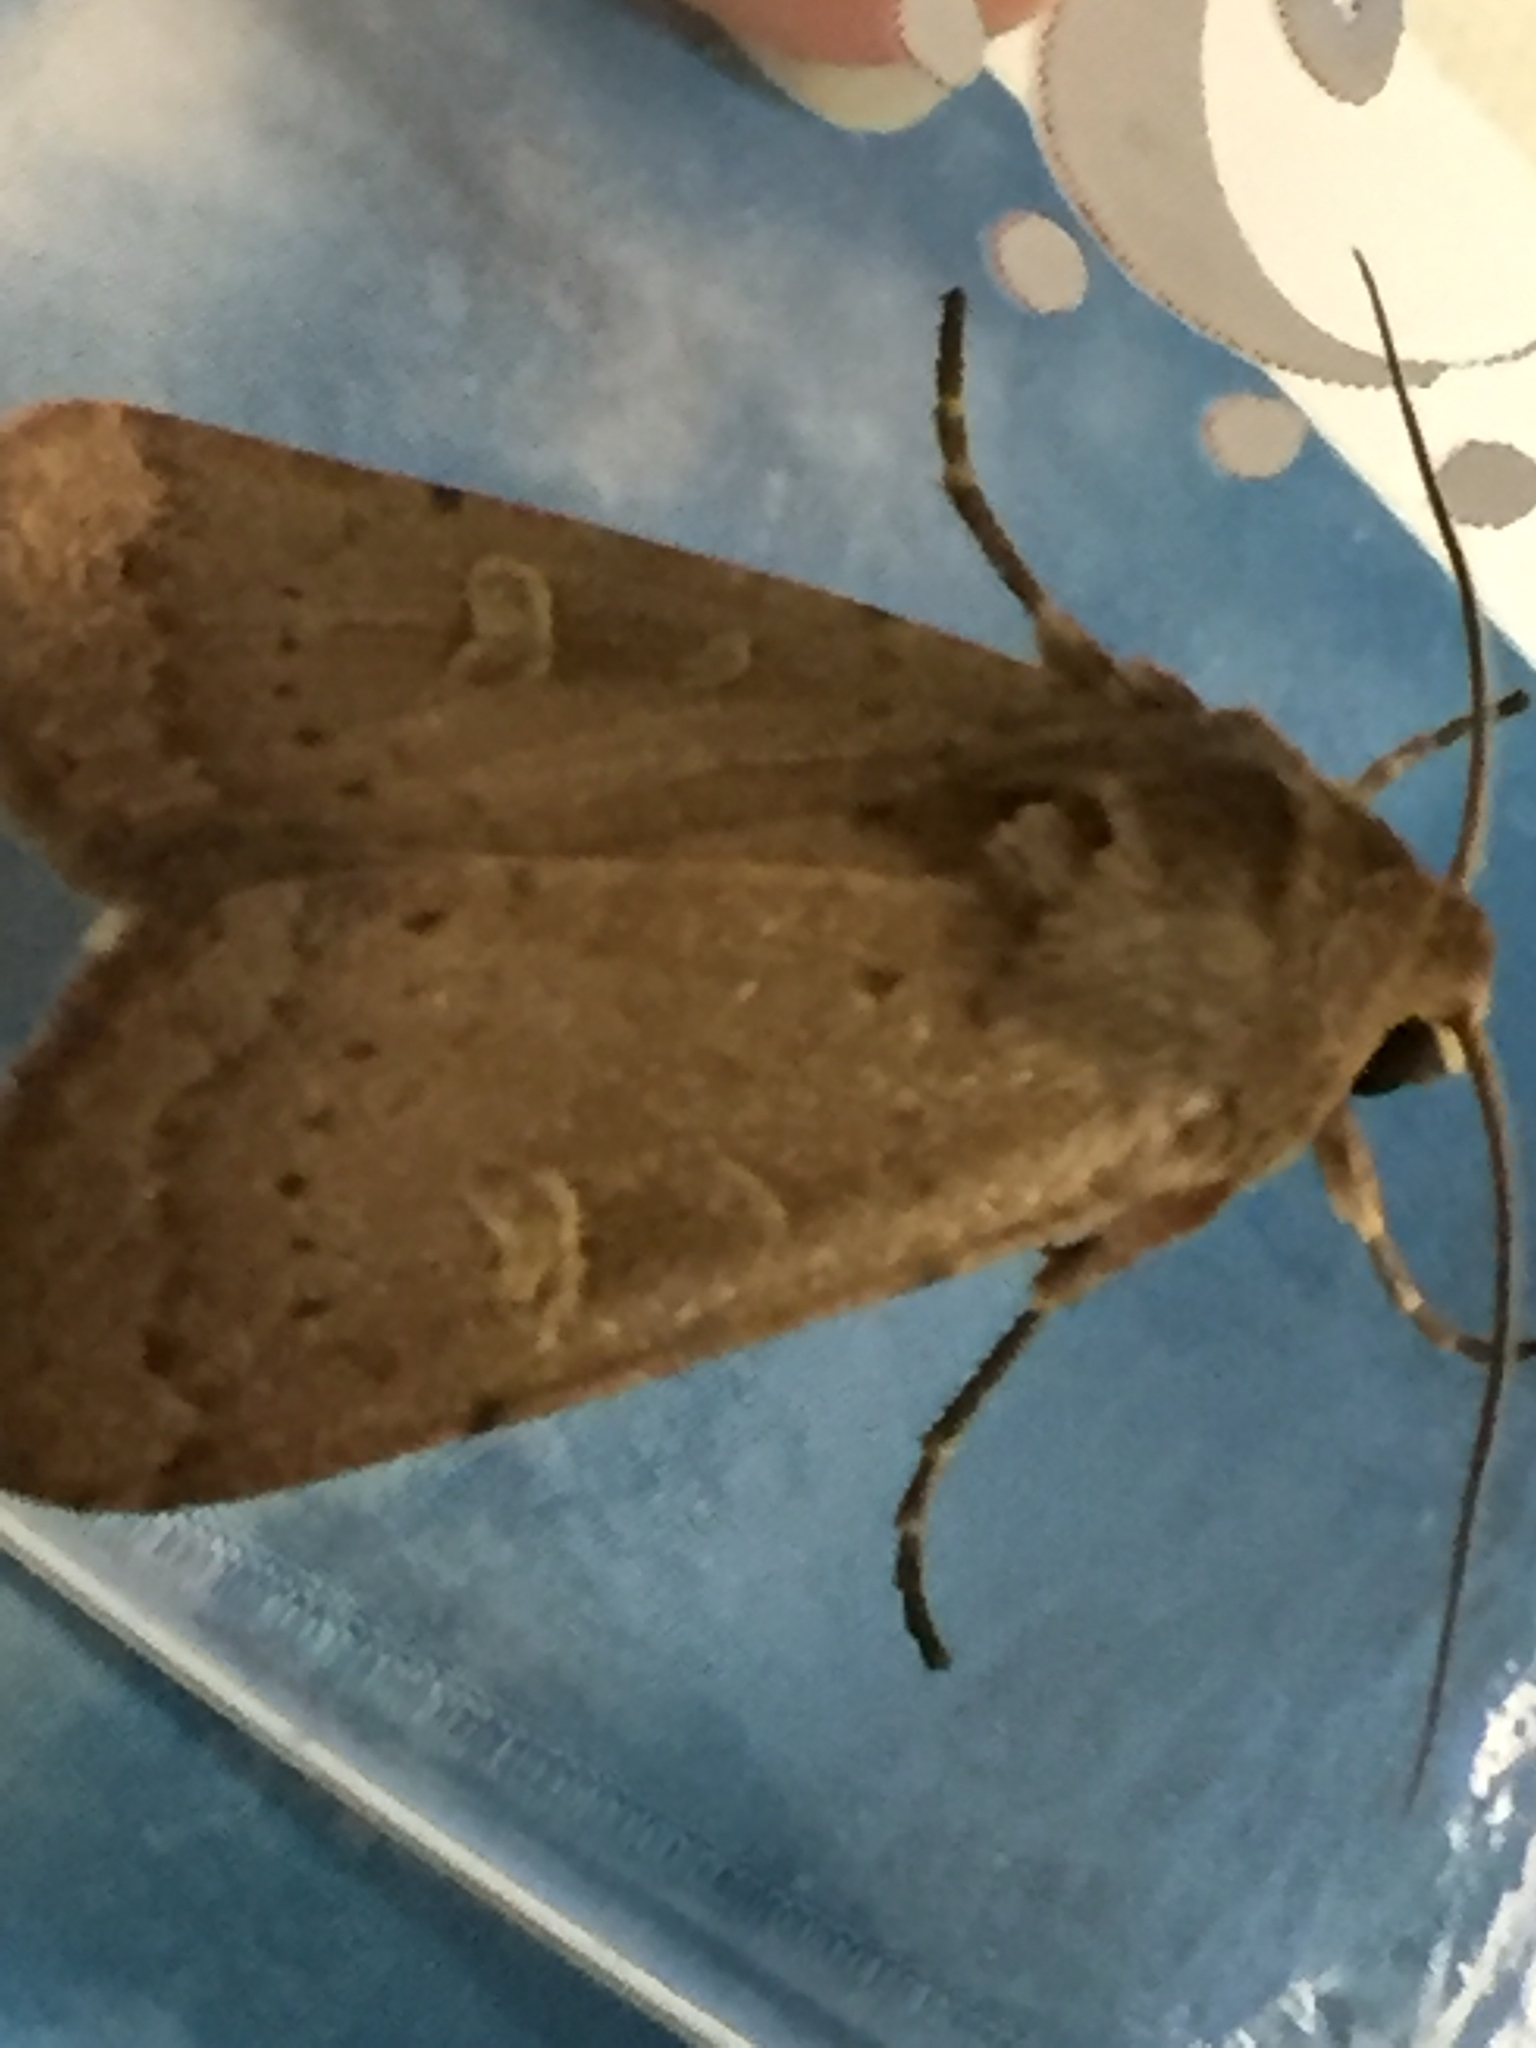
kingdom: Animalia
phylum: Arthropoda
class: Insecta
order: Lepidoptera
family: Noctuidae
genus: Xestia
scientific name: Xestia xanthographa
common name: Square-spot rustic
